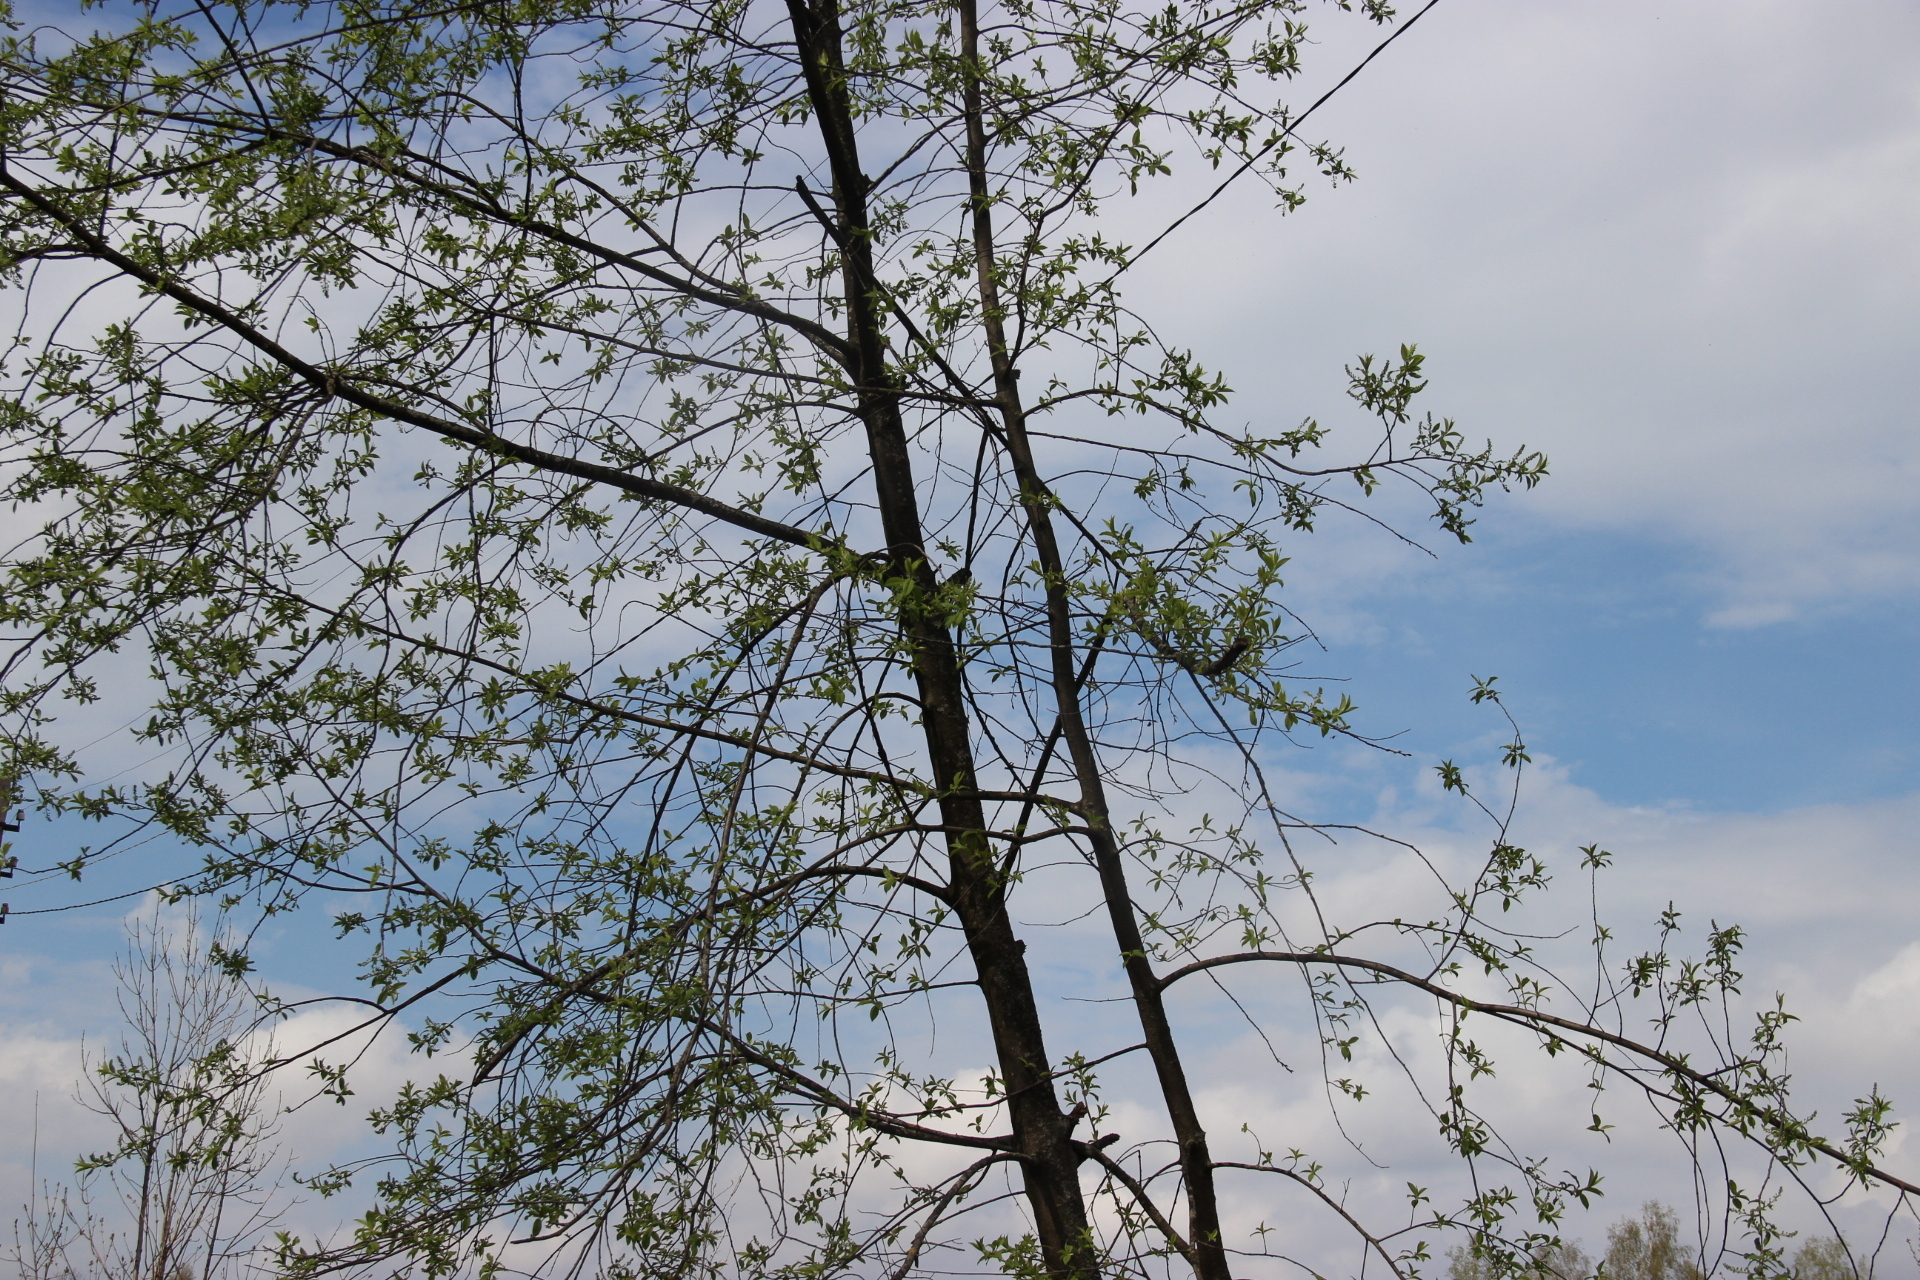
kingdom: Plantae
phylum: Tracheophyta
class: Magnoliopsida
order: Rosales
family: Rosaceae
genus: Prunus
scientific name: Prunus padus
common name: Bird cherry
